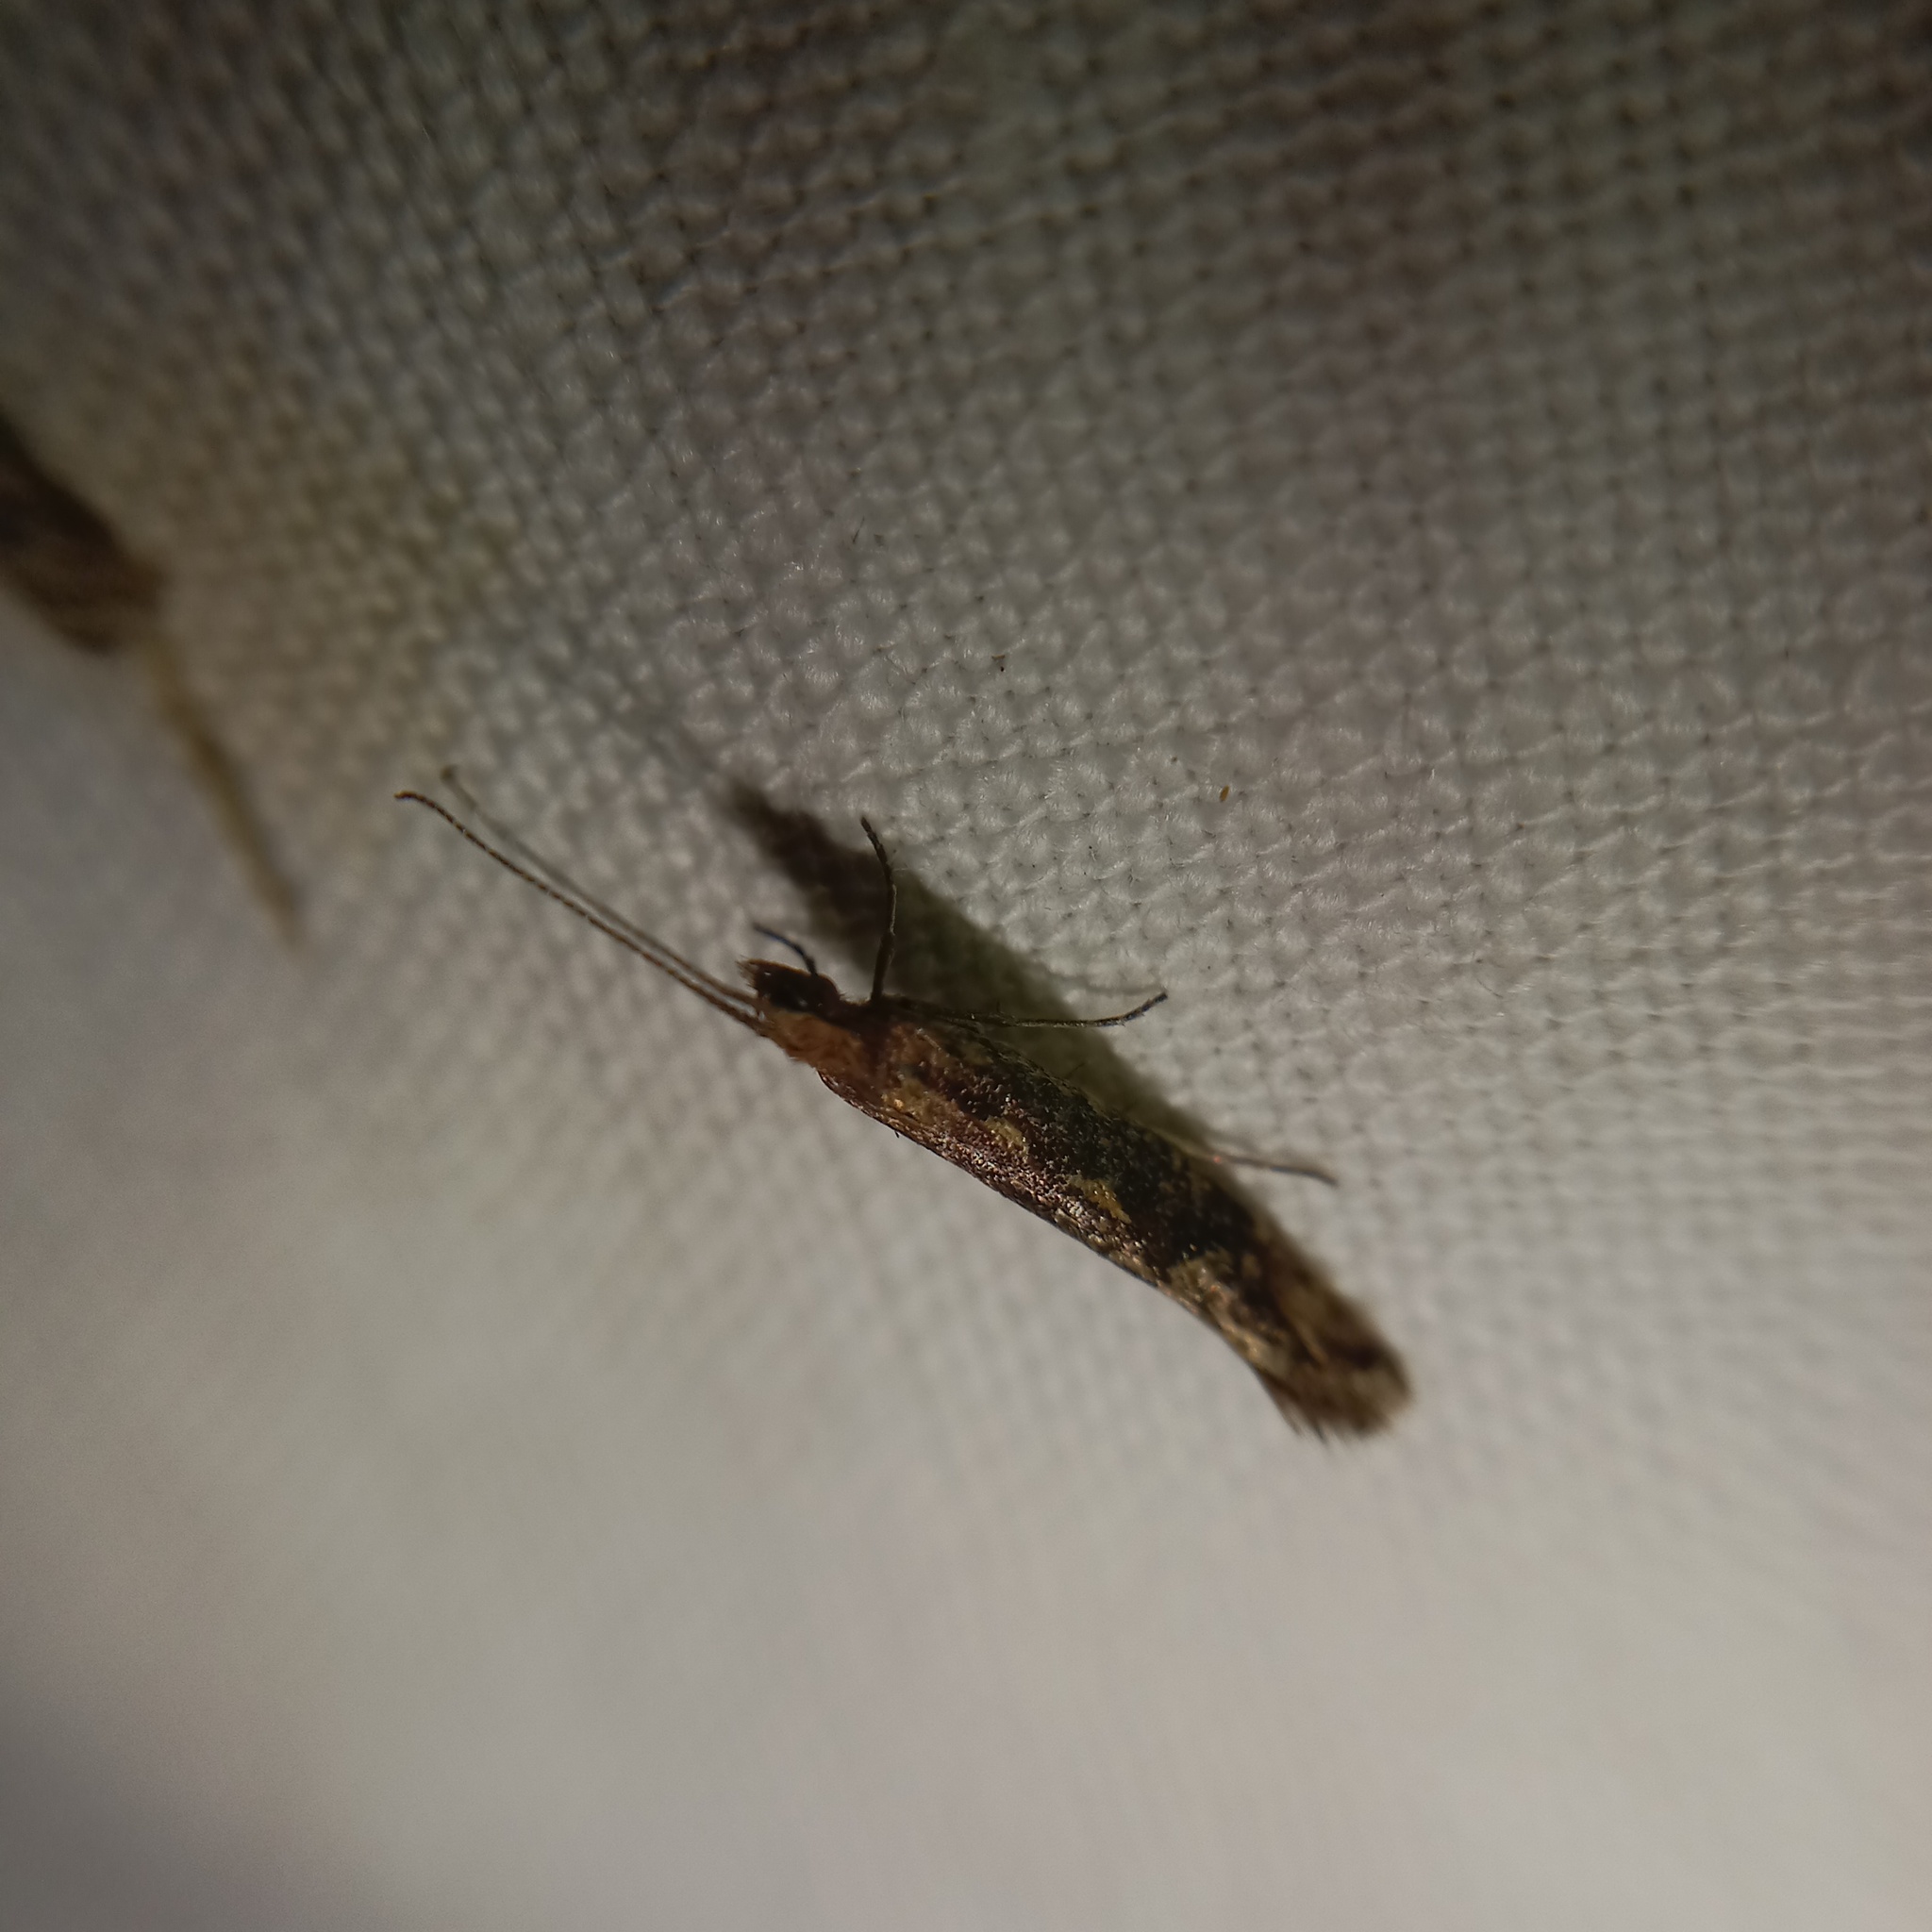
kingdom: Animalia
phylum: Arthropoda
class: Insecta
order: Lepidoptera
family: Plutellidae
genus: Plutella
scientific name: Plutella xylostella
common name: Diamond-back moth
